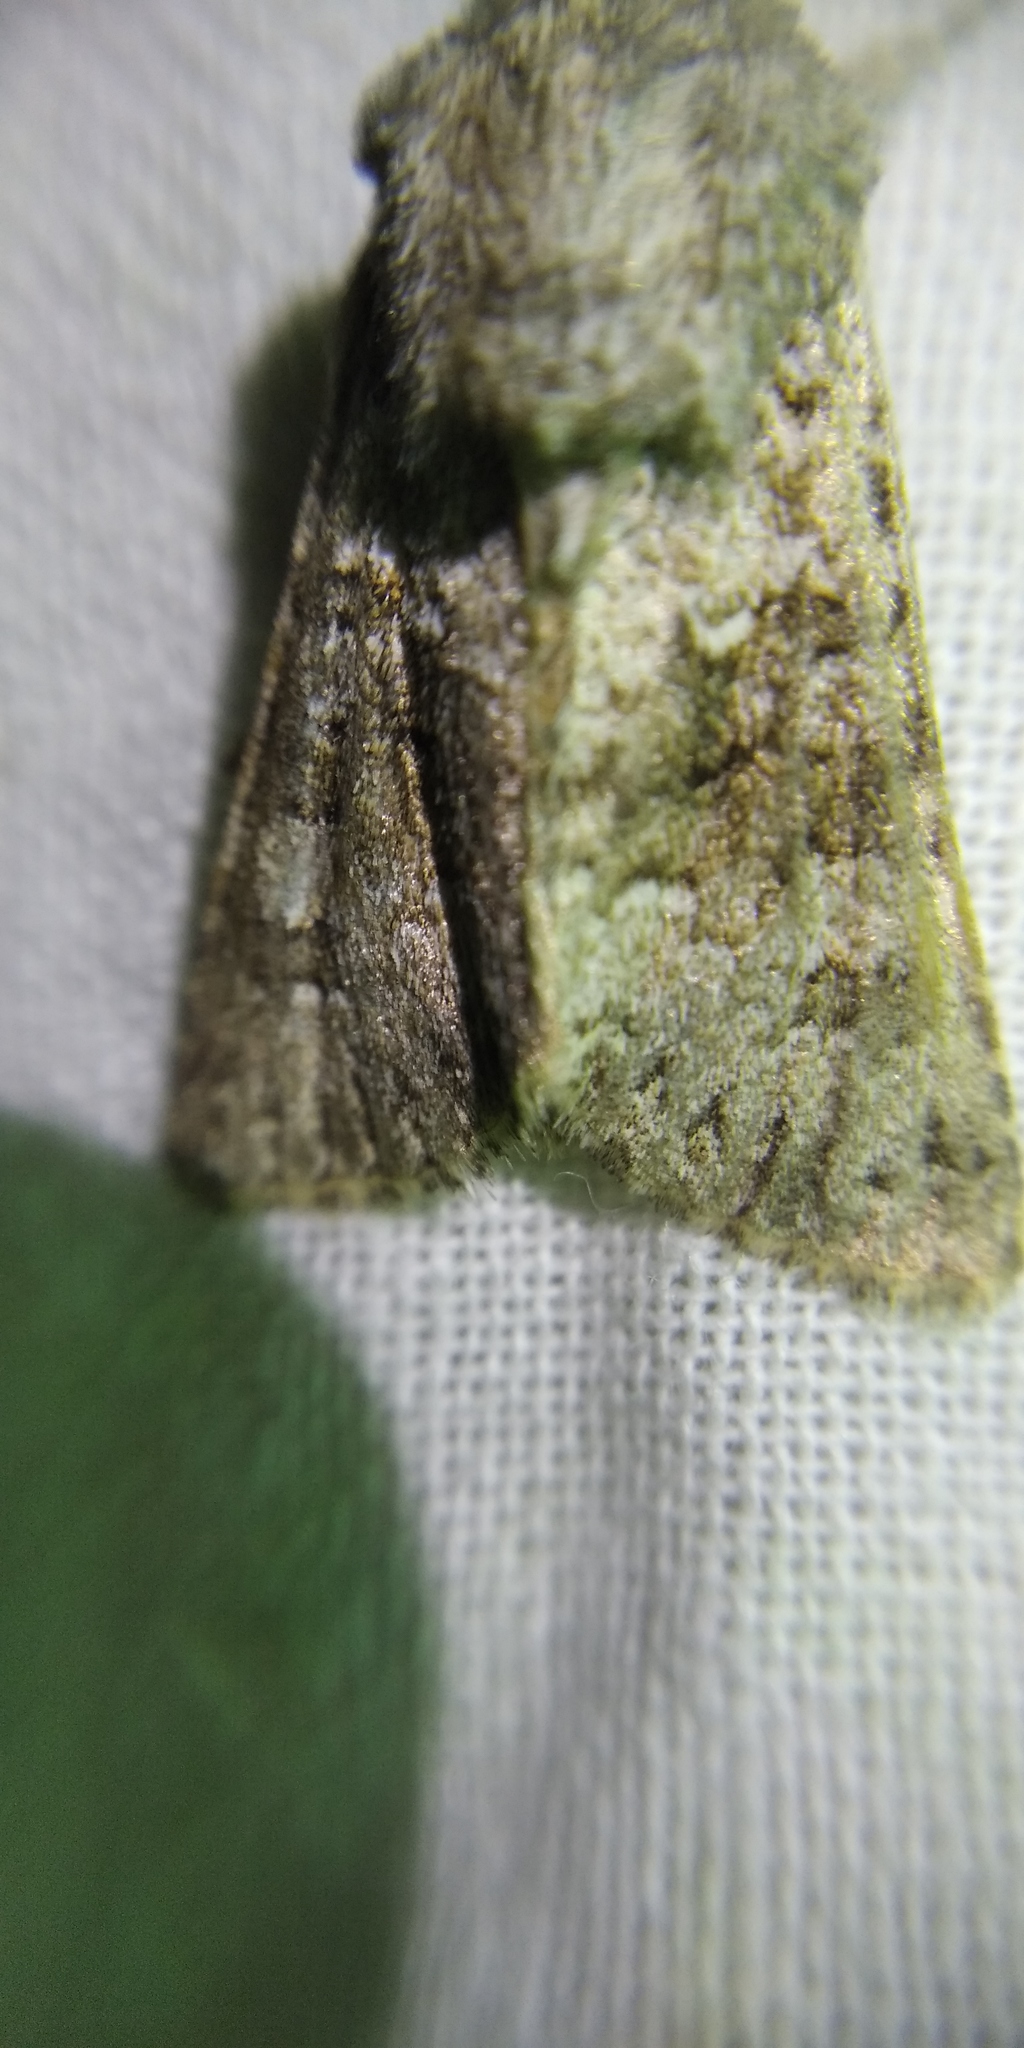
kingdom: Animalia
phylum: Arthropoda
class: Insecta
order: Lepidoptera
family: Noctuidae
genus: Hecatera
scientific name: Hecatera dysodea
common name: Small ranunculus
